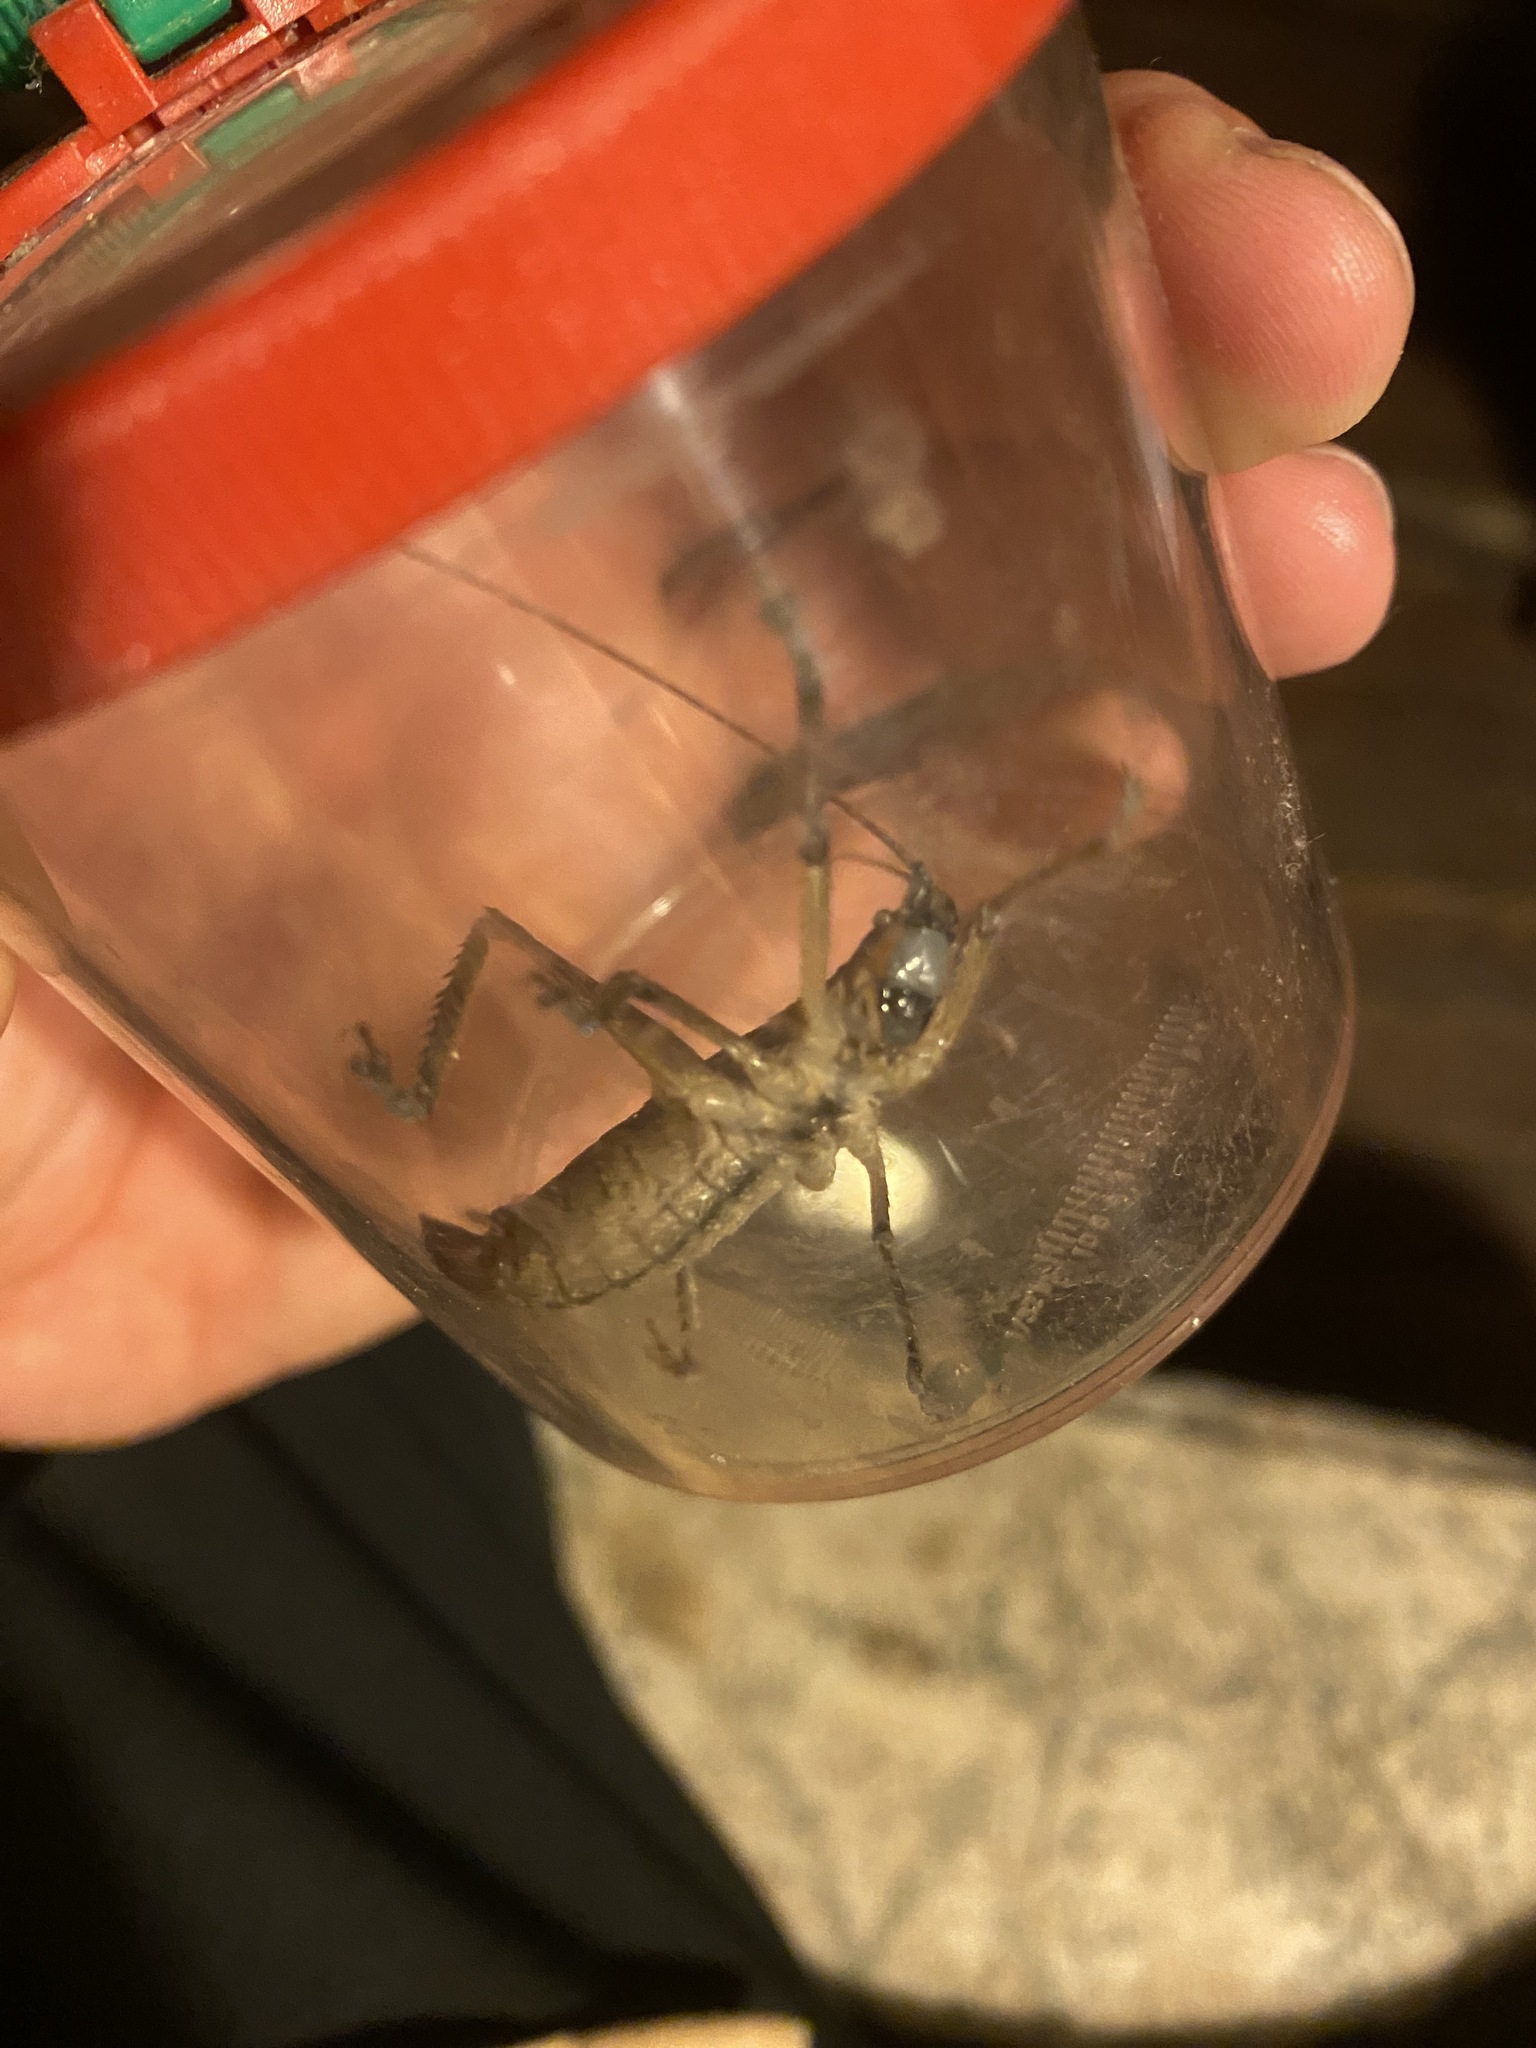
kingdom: Animalia
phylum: Arthropoda
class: Insecta
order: Orthoptera
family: Tettigoniidae
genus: Dasyscelus
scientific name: Dasyscelus normalis
